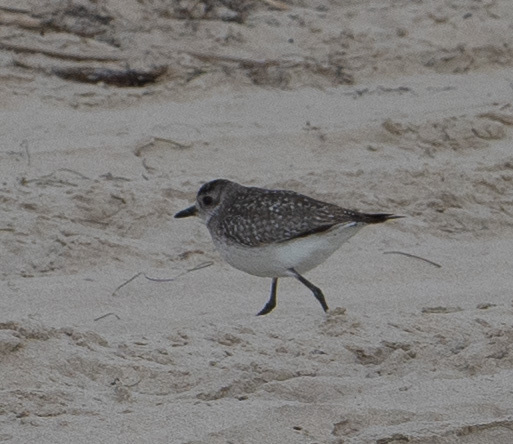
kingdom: Animalia
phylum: Chordata
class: Aves
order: Charadriiformes
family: Charadriidae
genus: Pluvialis
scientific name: Pluvialis squatarola
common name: Grey plover
